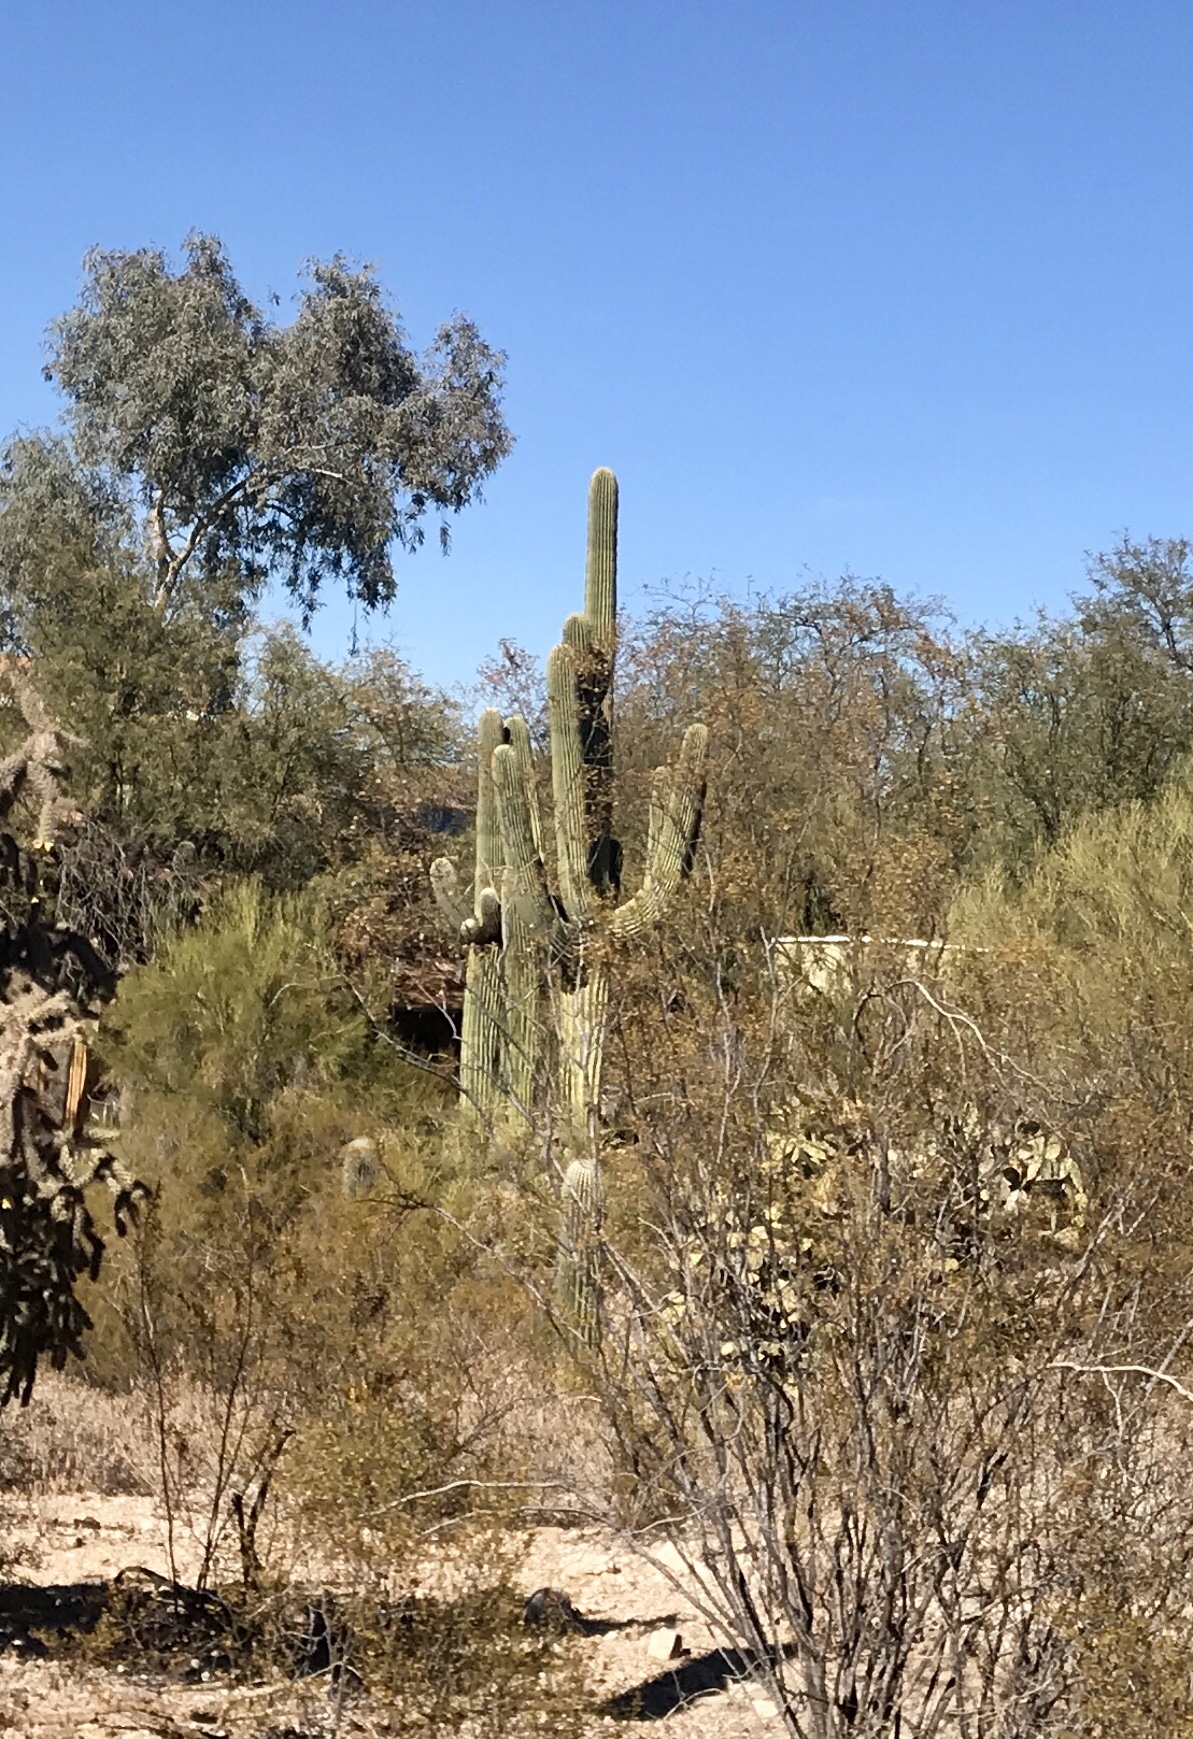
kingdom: Plantae
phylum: Tracheophyta
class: Magnoliopsida
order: Caryophyllales
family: Cactaceae
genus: Carnegiea
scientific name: Carnegiea gigantea
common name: Saguaro
